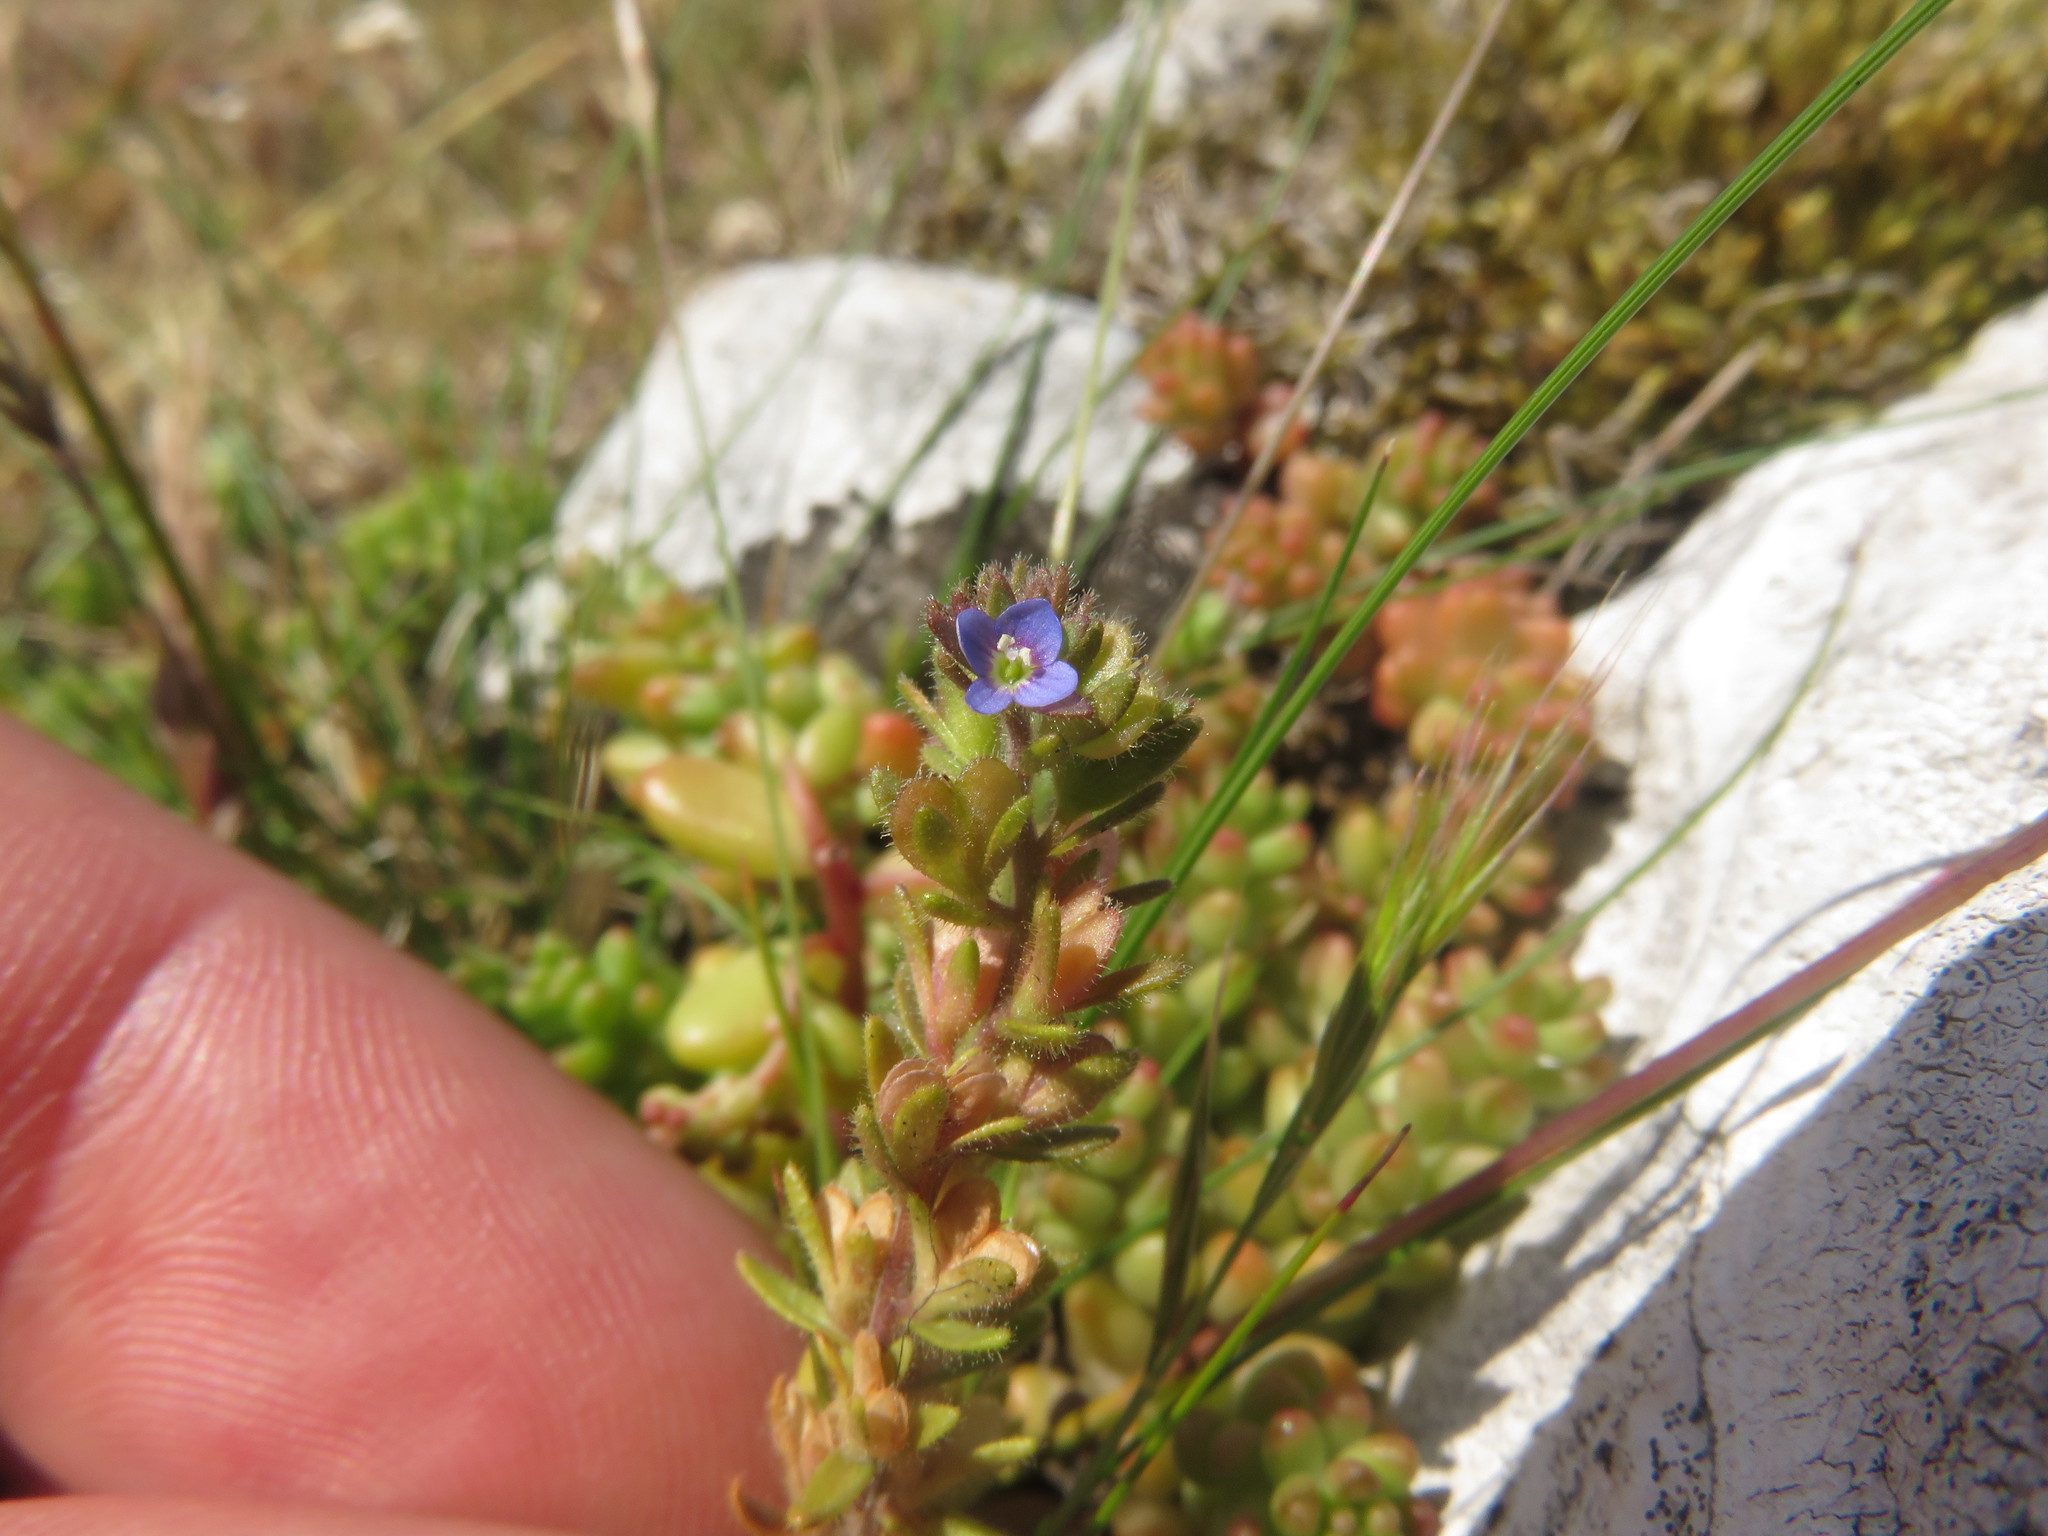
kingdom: Plantae
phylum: Tracheophyta
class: Magnoliopsida
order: Lamiales
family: Plantaginaceae
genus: Veronica
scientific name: Veronica arvensis
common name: Corn speedwell
